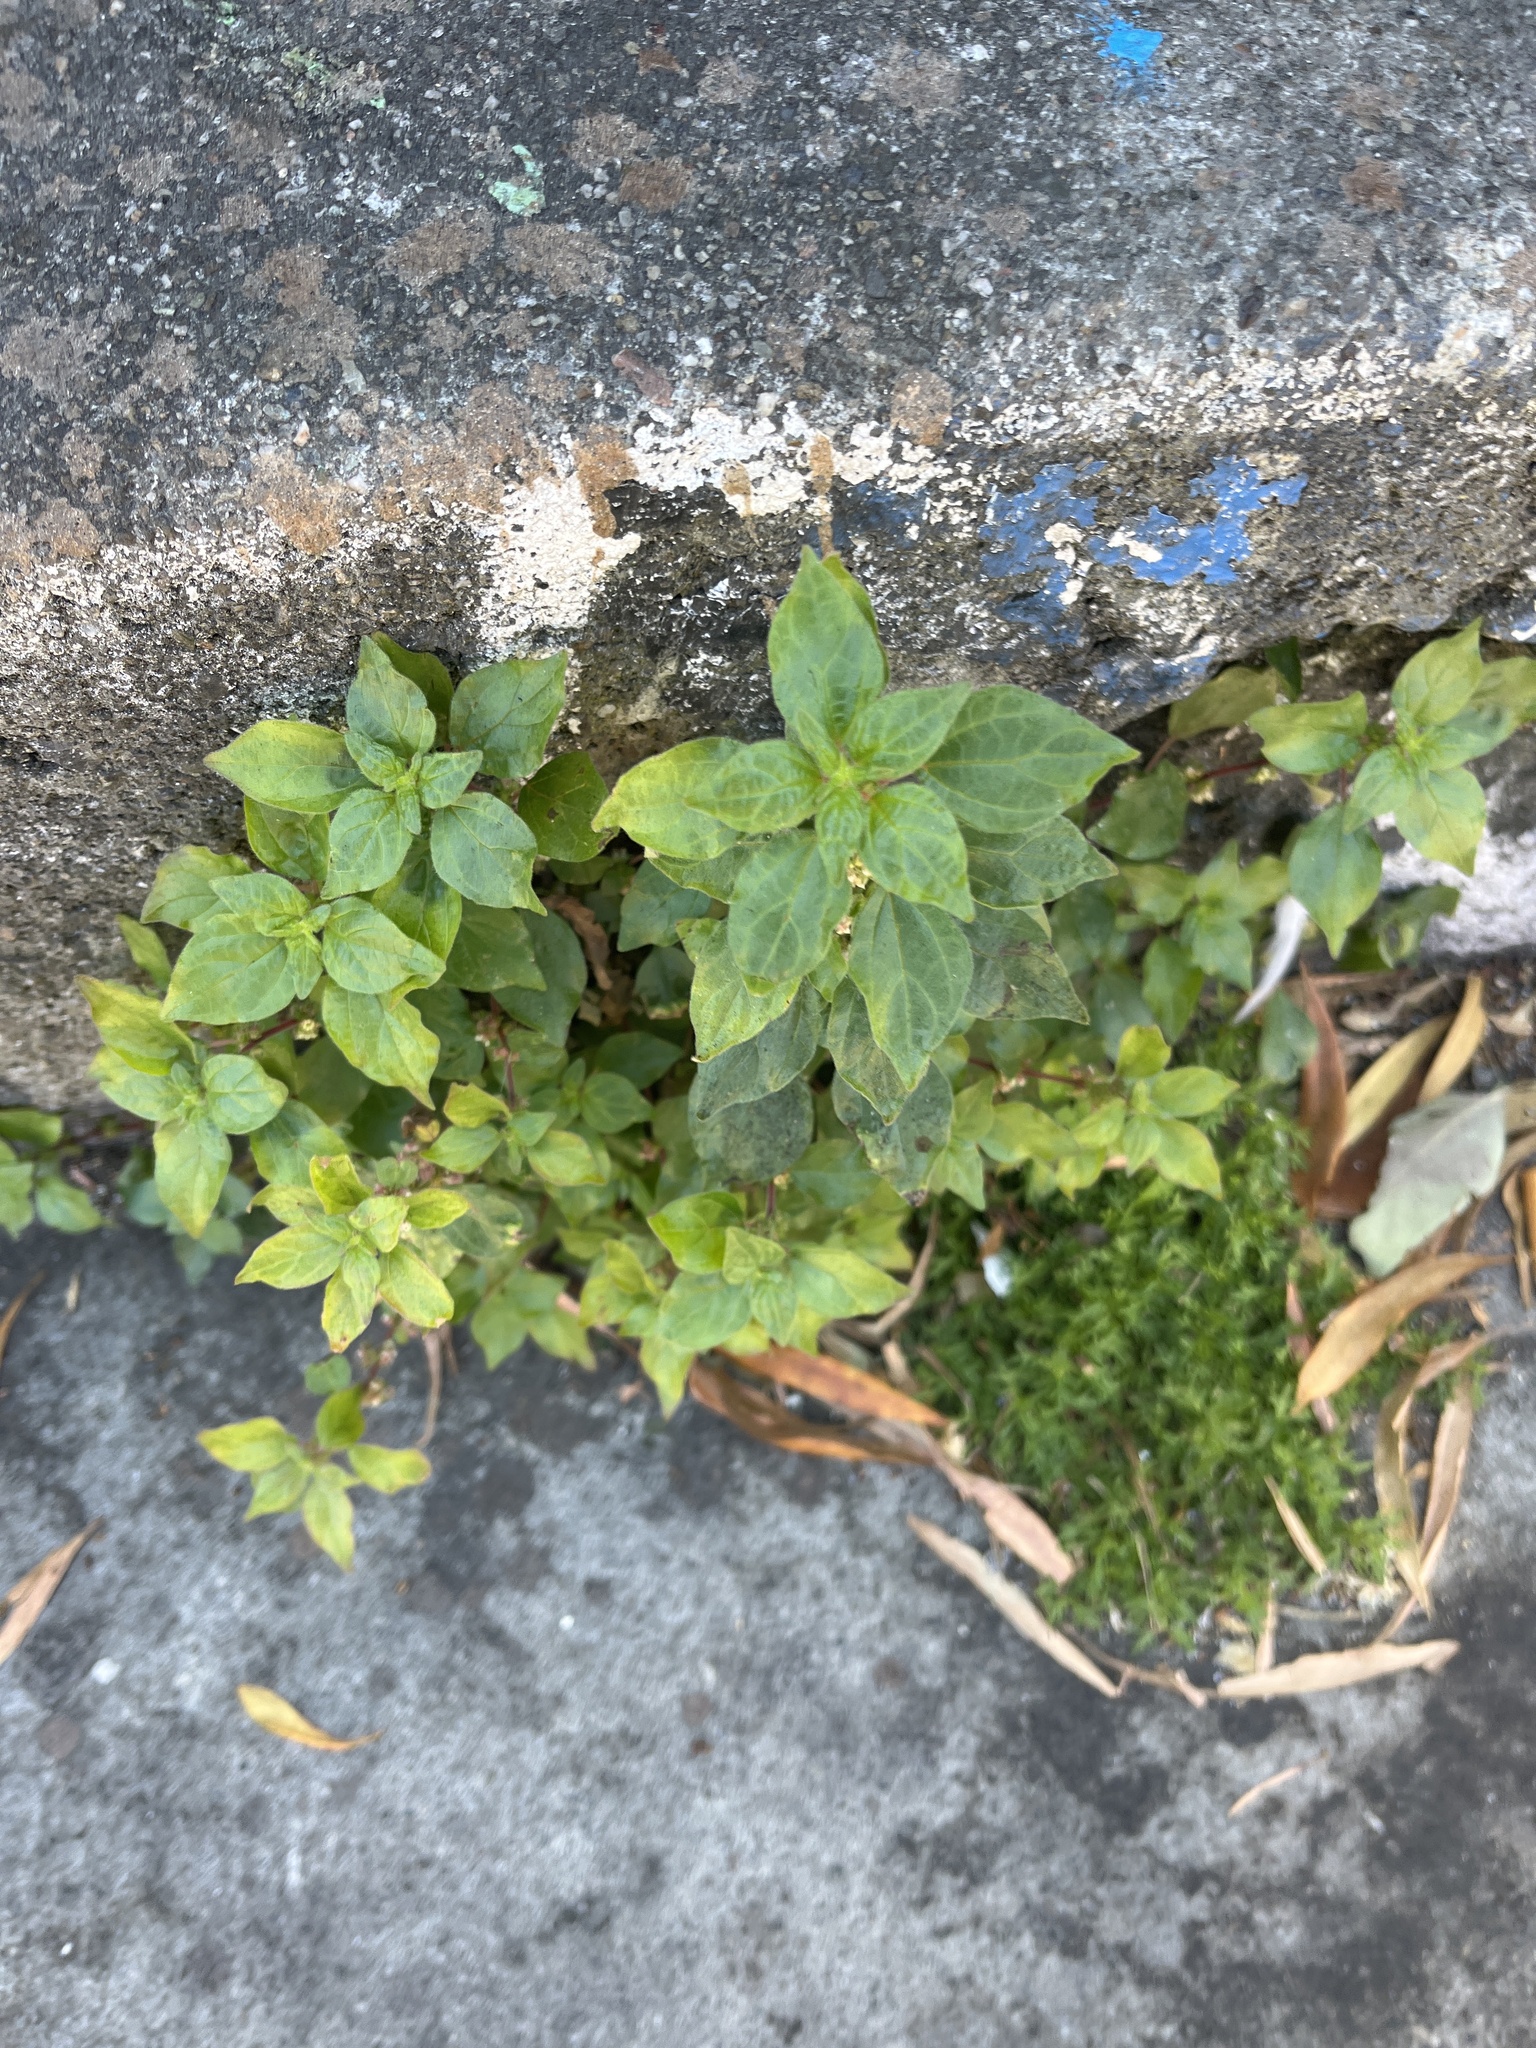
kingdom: Plantae
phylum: Tracheophyta
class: Magnoliopsida
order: Rosales
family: Urticaceae
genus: Parietaria
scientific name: Parietaria judaica
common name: Pellitory-of-the-wall
